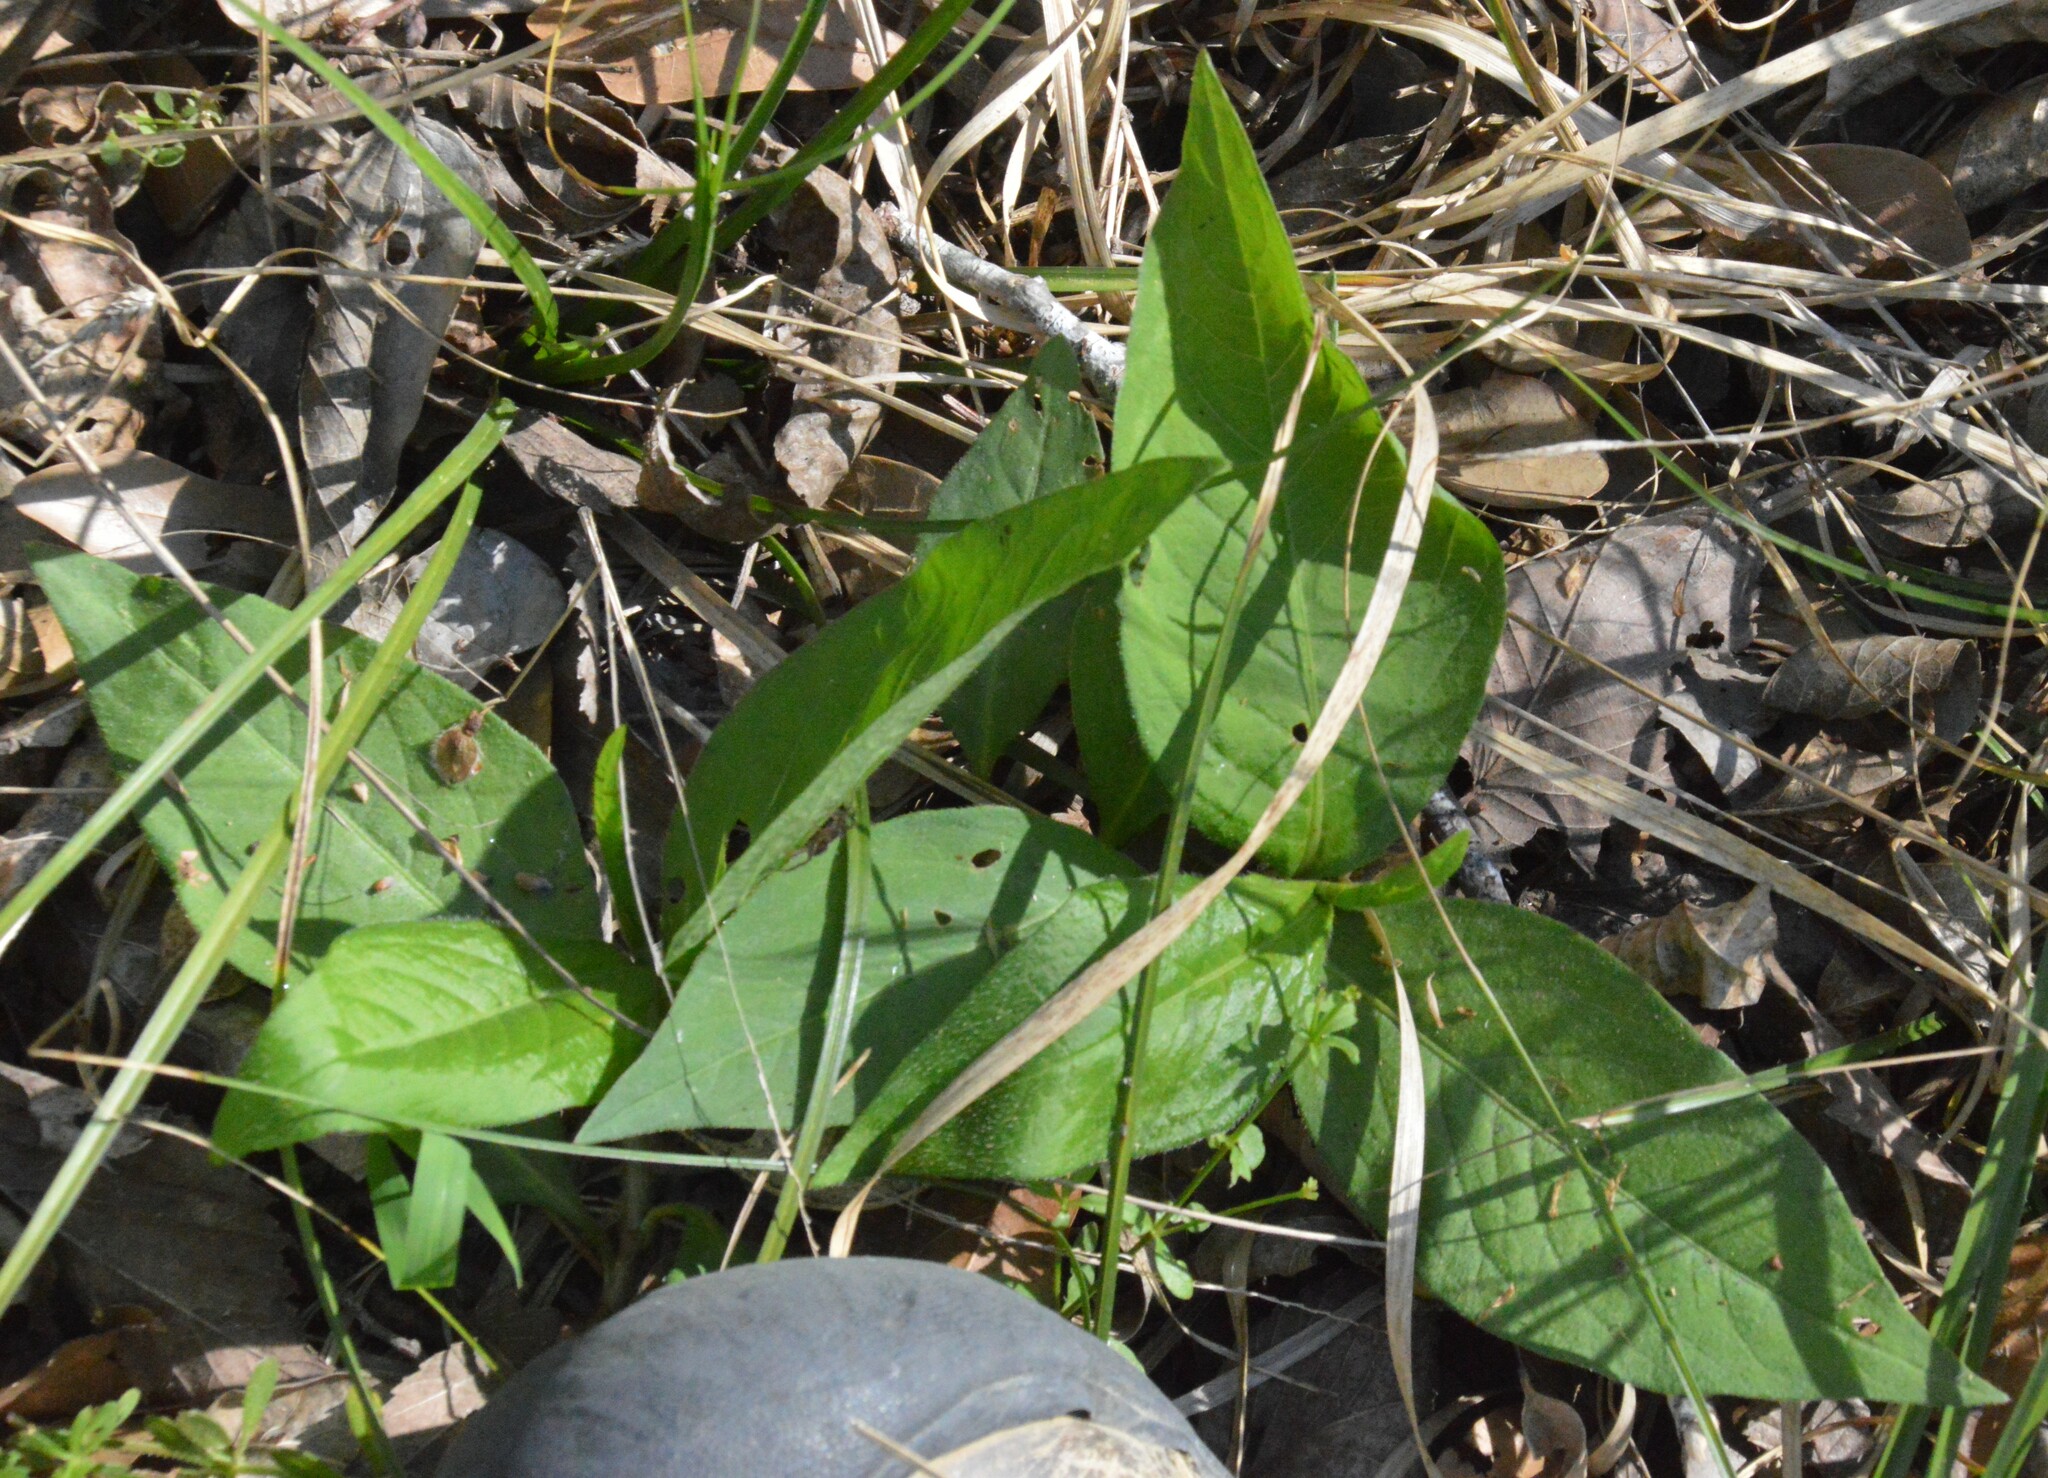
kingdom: Plantae
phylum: Tracheophyta
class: Magnoliopsida
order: Caryophyllales
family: Polygonaceae
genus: Persicaria
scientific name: Persicaria virginiana
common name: Jumpseed
